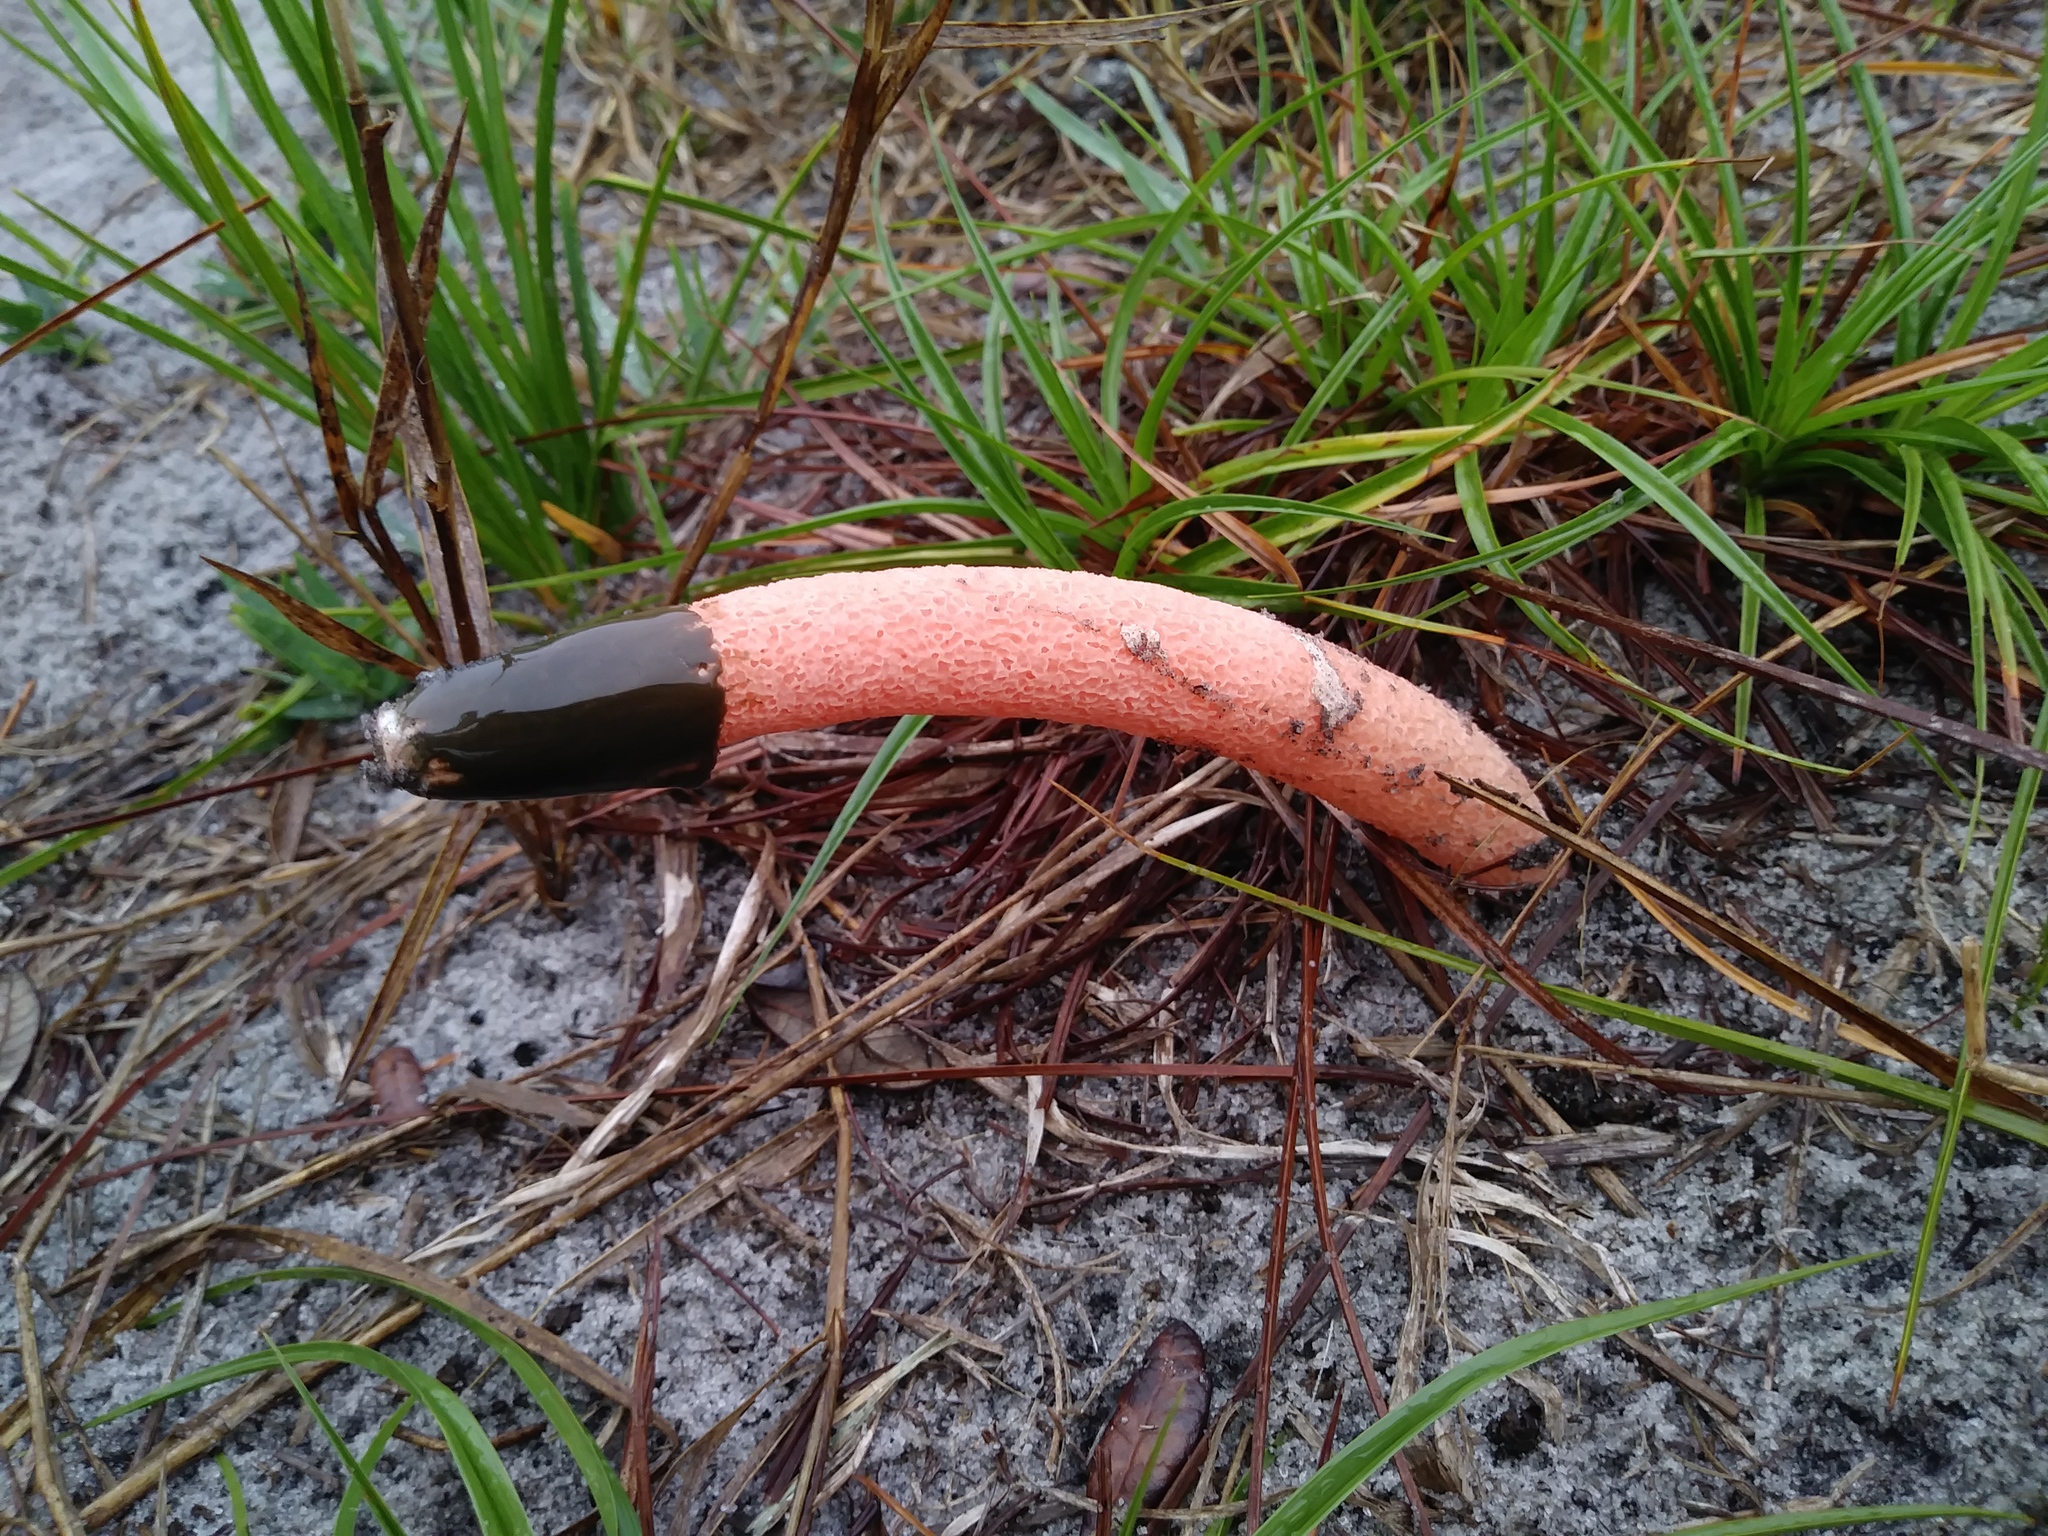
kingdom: Fungi
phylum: Basidiomycota
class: Agaricomycetes
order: Phallales
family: Phallaceae
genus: Phallus
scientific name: Phallus rubicundus
